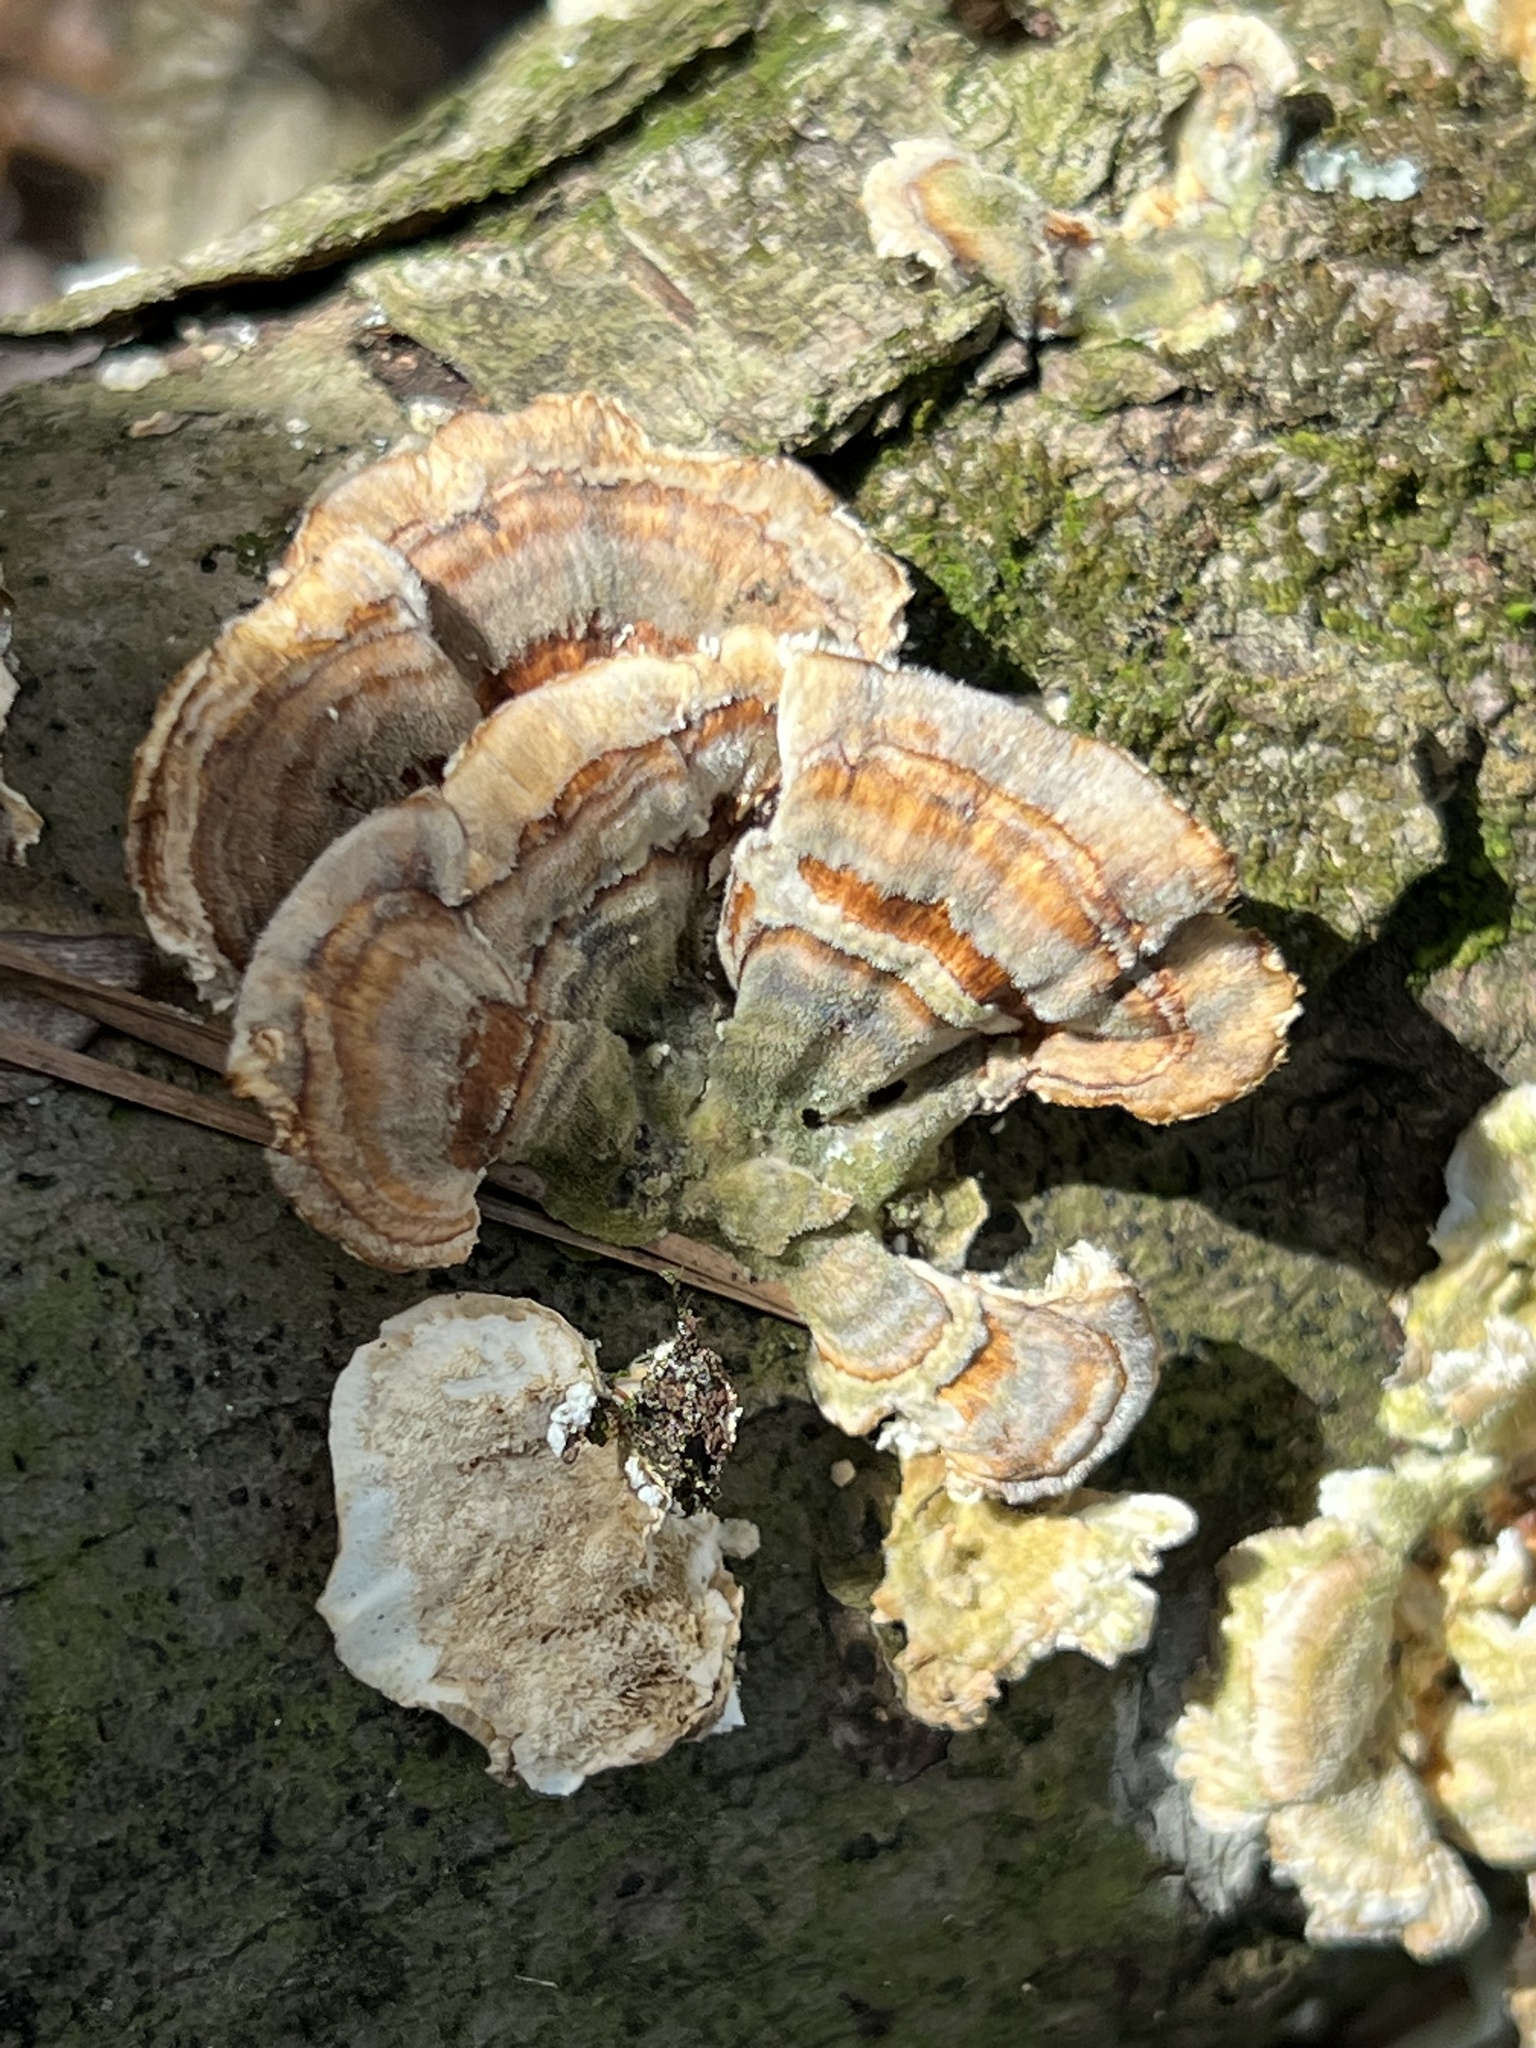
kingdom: Fungi
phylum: Basidiomycota
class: Agaricomycetes
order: Polyporales
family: Polyporaceae
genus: Trametes
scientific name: Trametes versicolor
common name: Turkeytail
